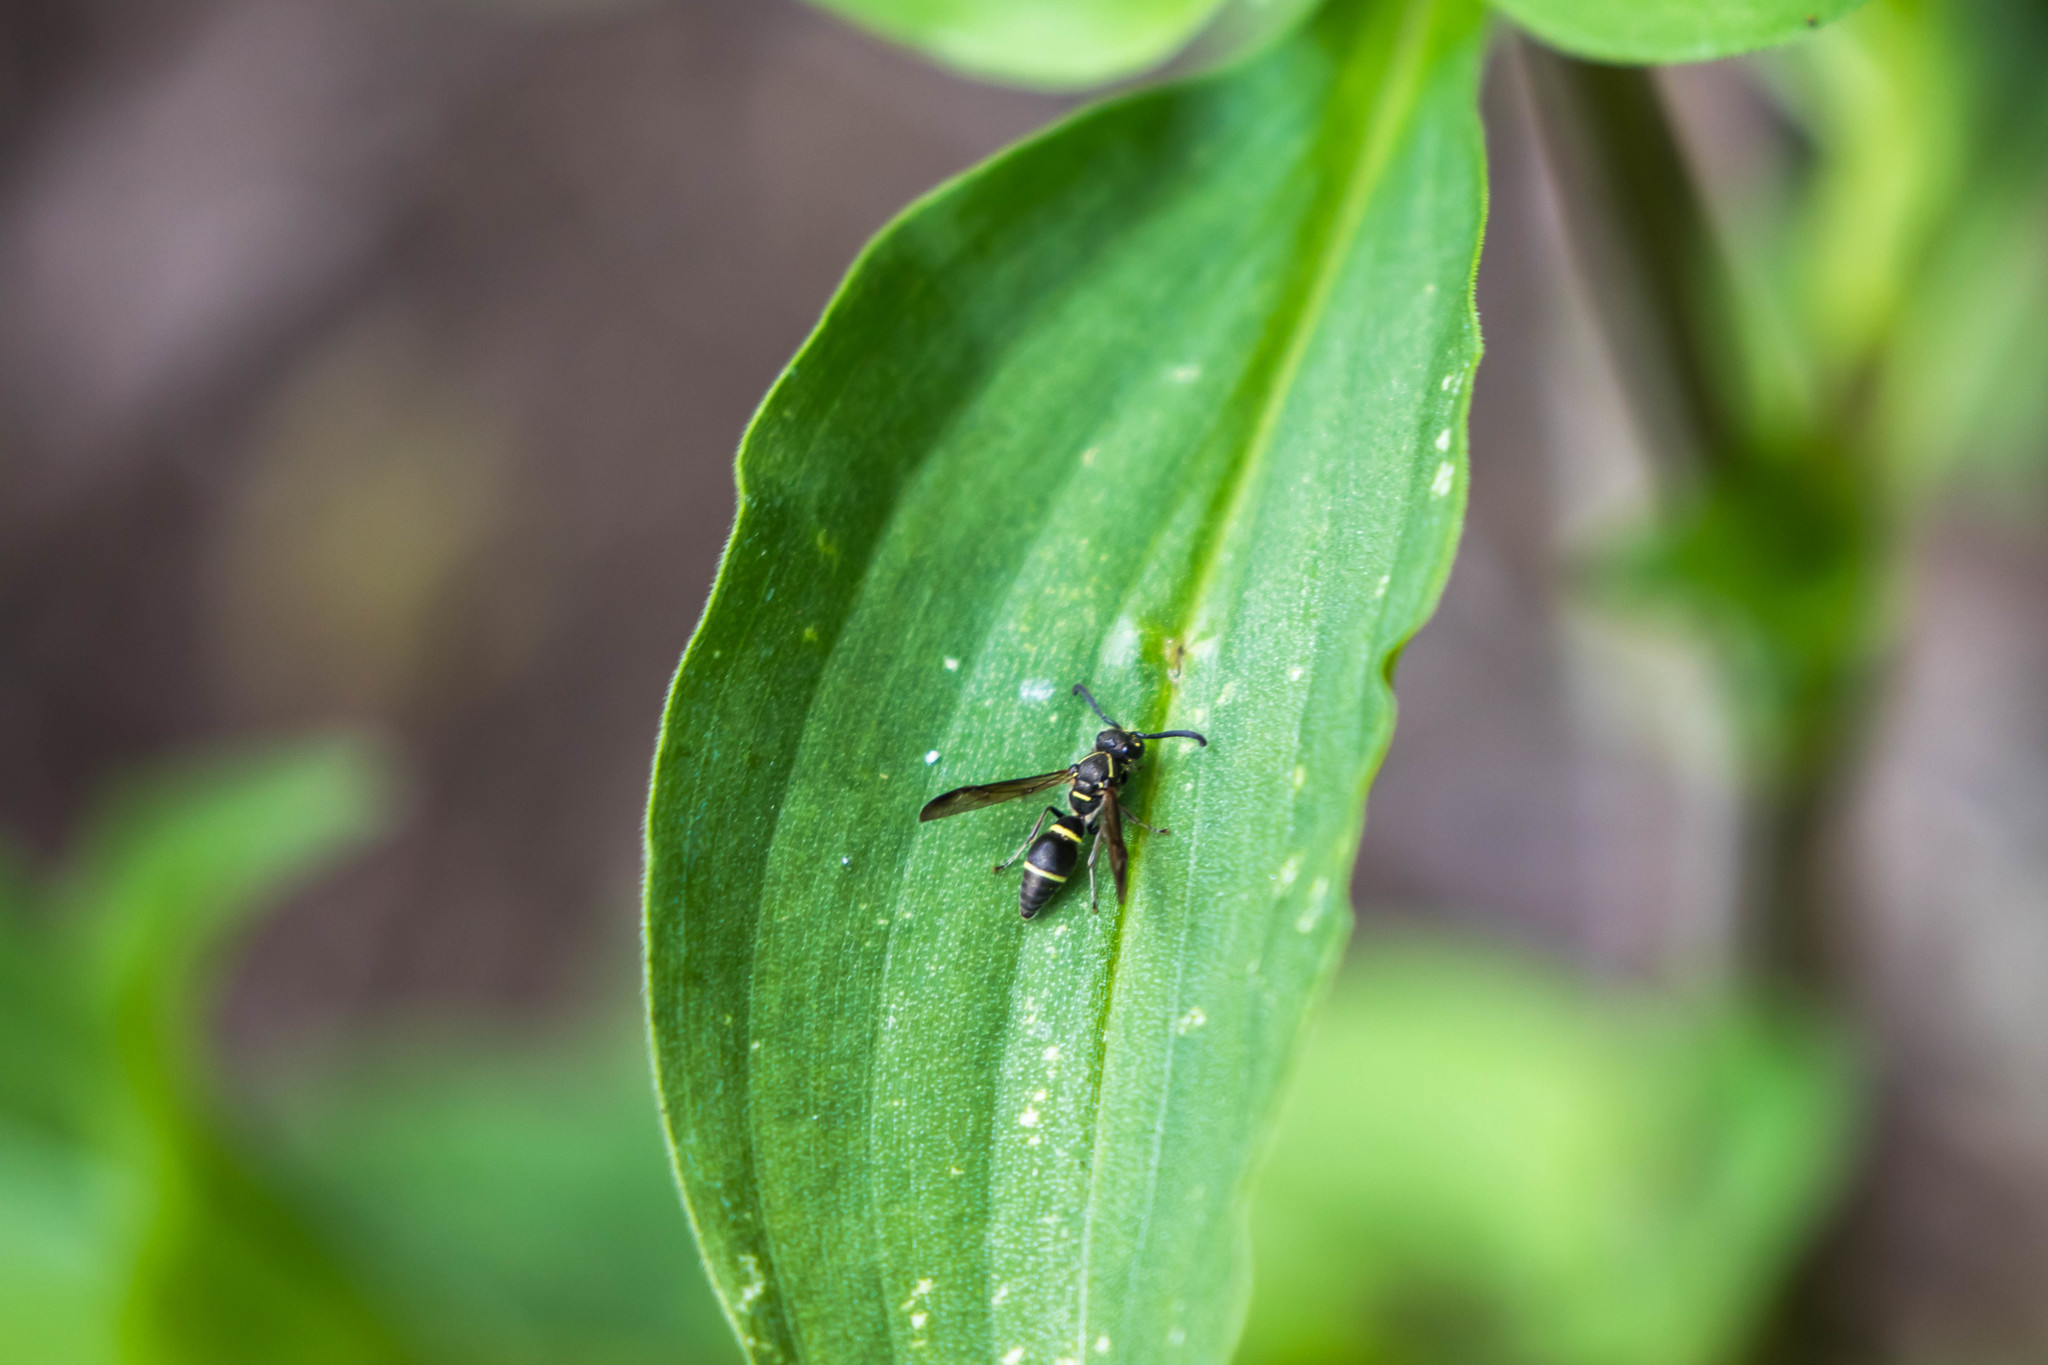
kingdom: Animalia
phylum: Arthropoda
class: Insecta
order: Hymenoptera
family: Eumenidae
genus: Parancistrocerus
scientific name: Parancistrocerus
